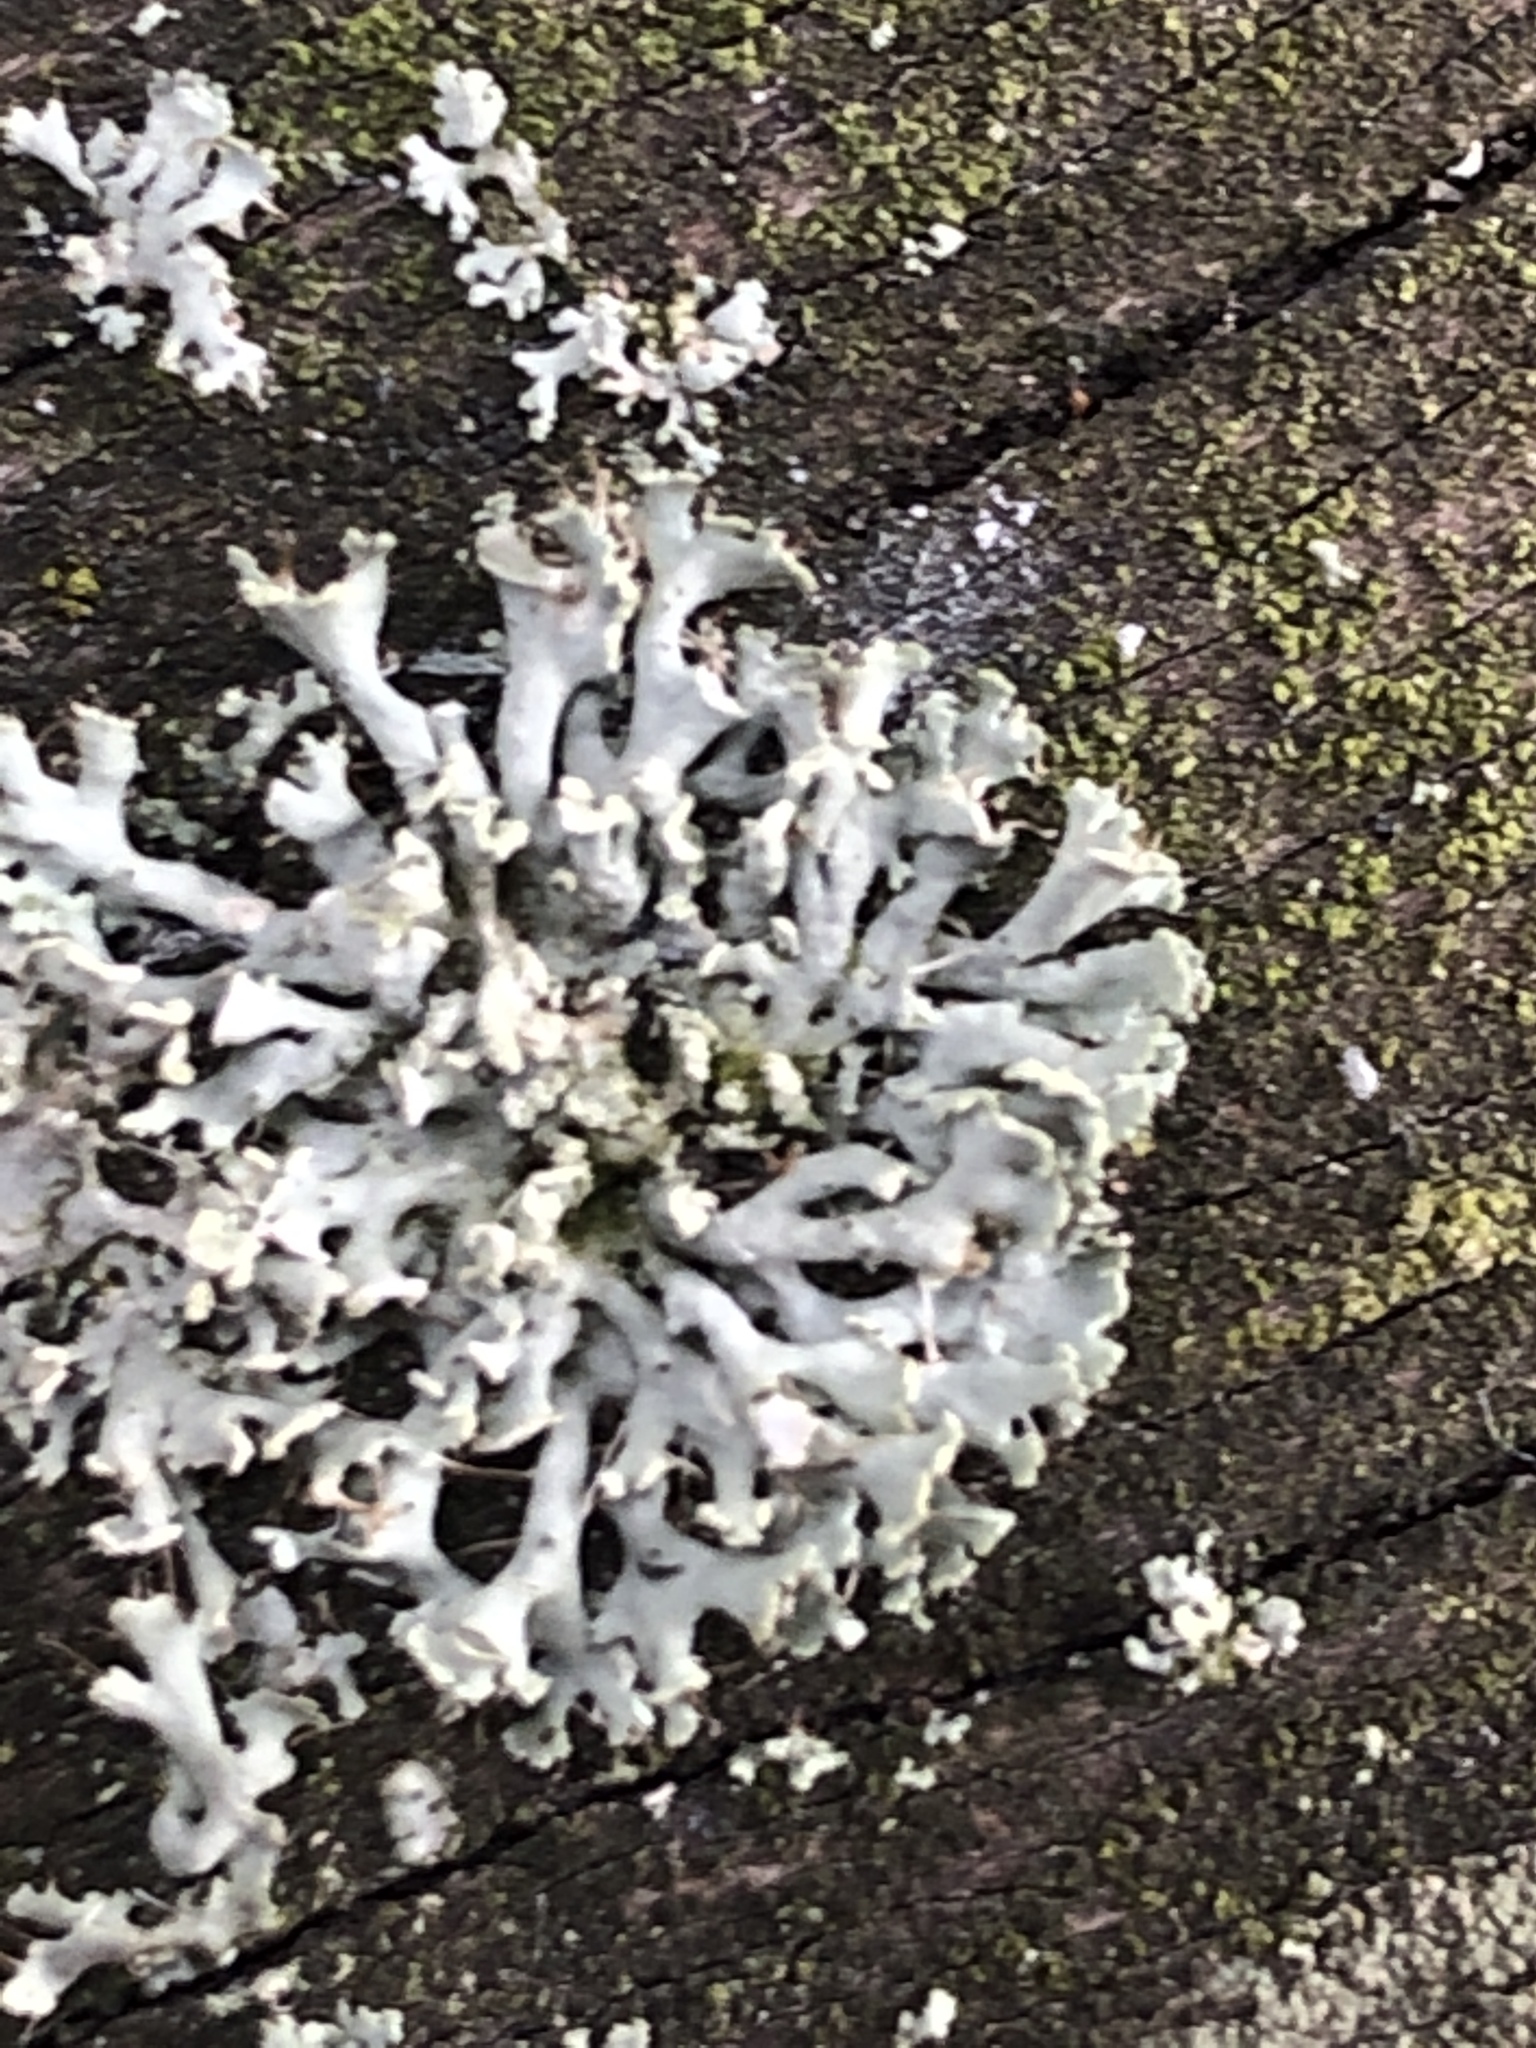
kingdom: Fungi
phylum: Ascomycota
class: Lecanoromycetes
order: Caliciales
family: Physciaceae
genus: Physcia
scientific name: Physcia adscendens
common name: Hooded rosette lichen
